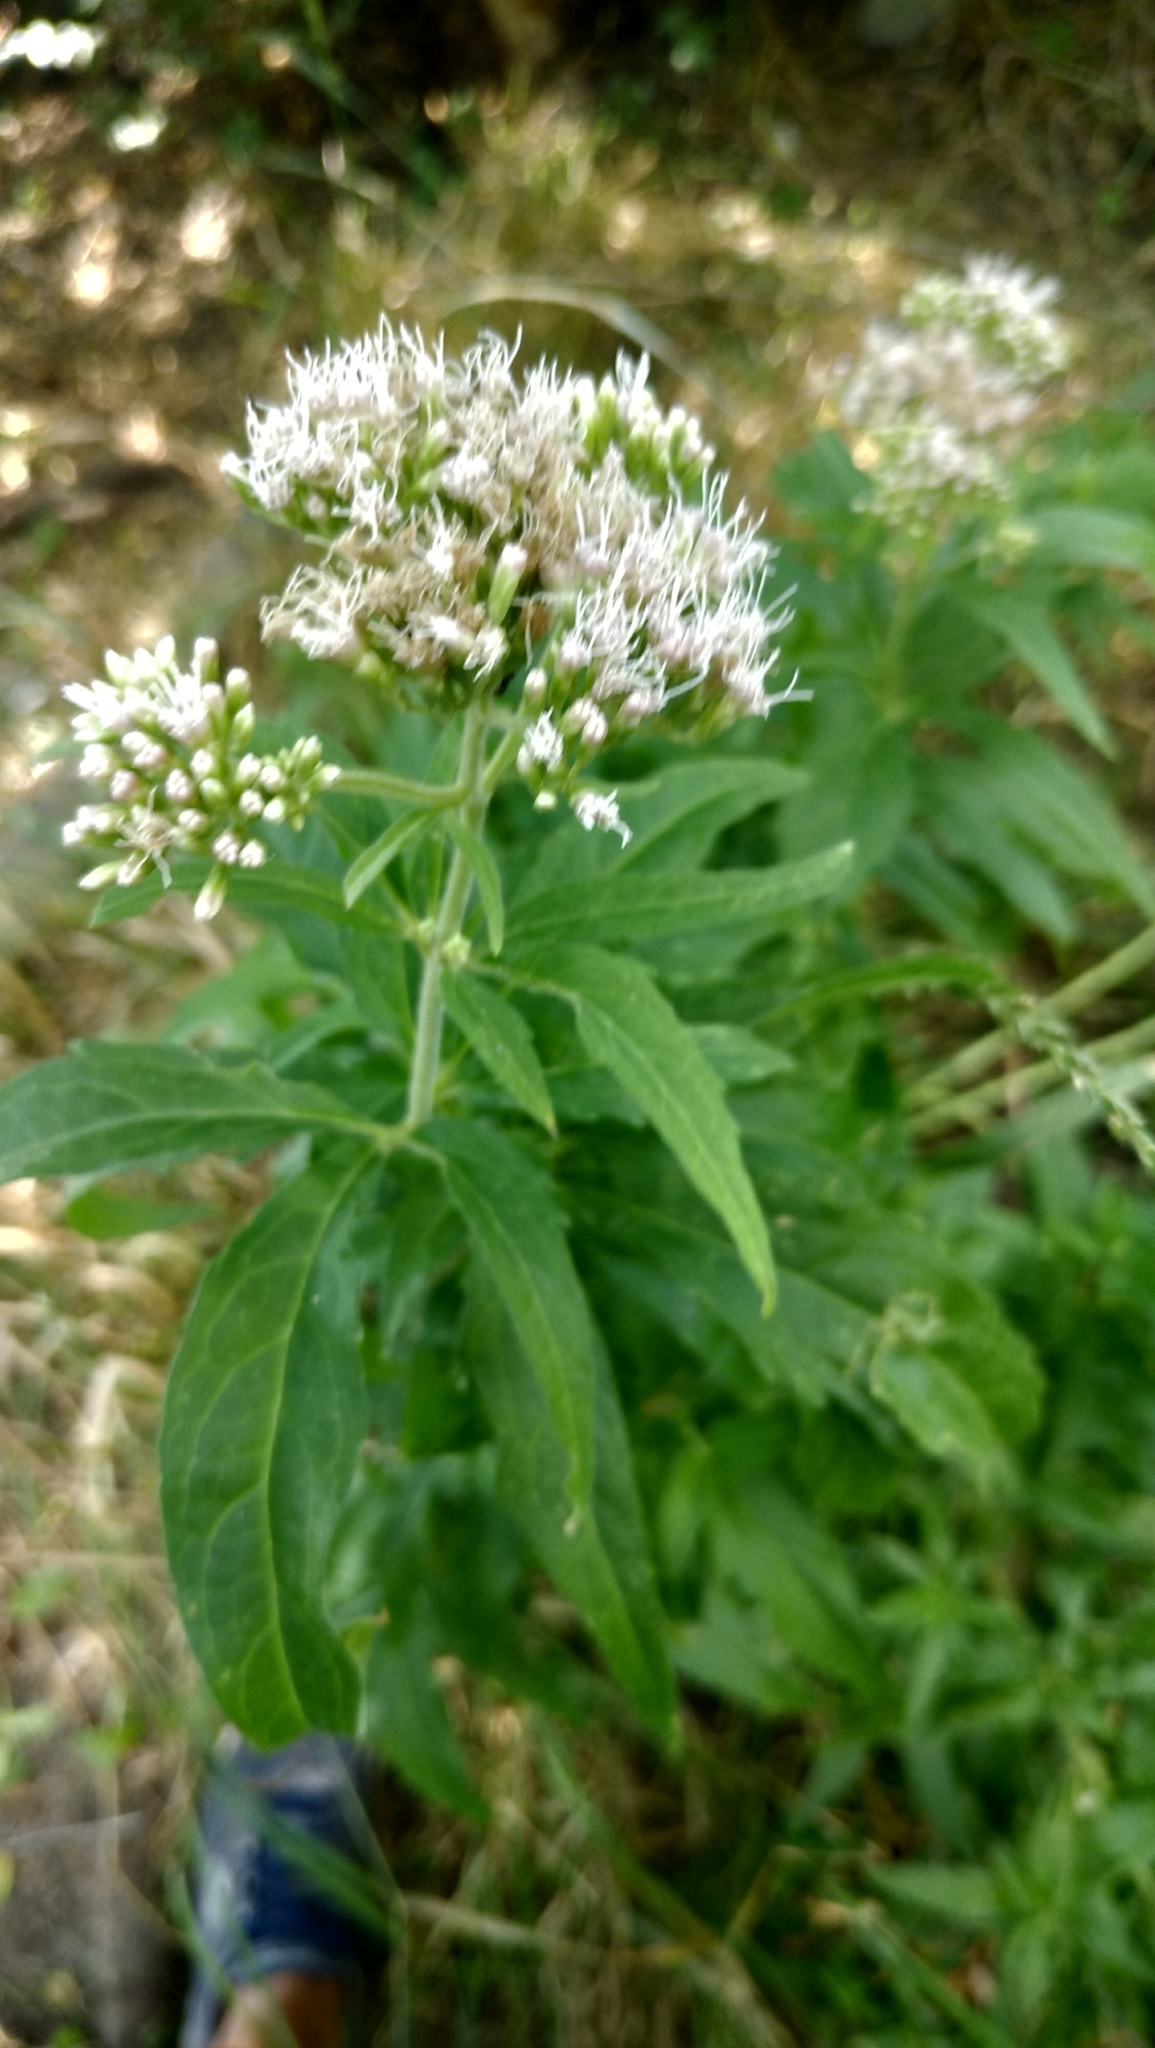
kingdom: Plantae
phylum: Tracheophyta
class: Magnoliopsida
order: Asterales
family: Asteraceae
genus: Eupatorium
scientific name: Eupatorium cannabinum
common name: Hemp-agrimony
